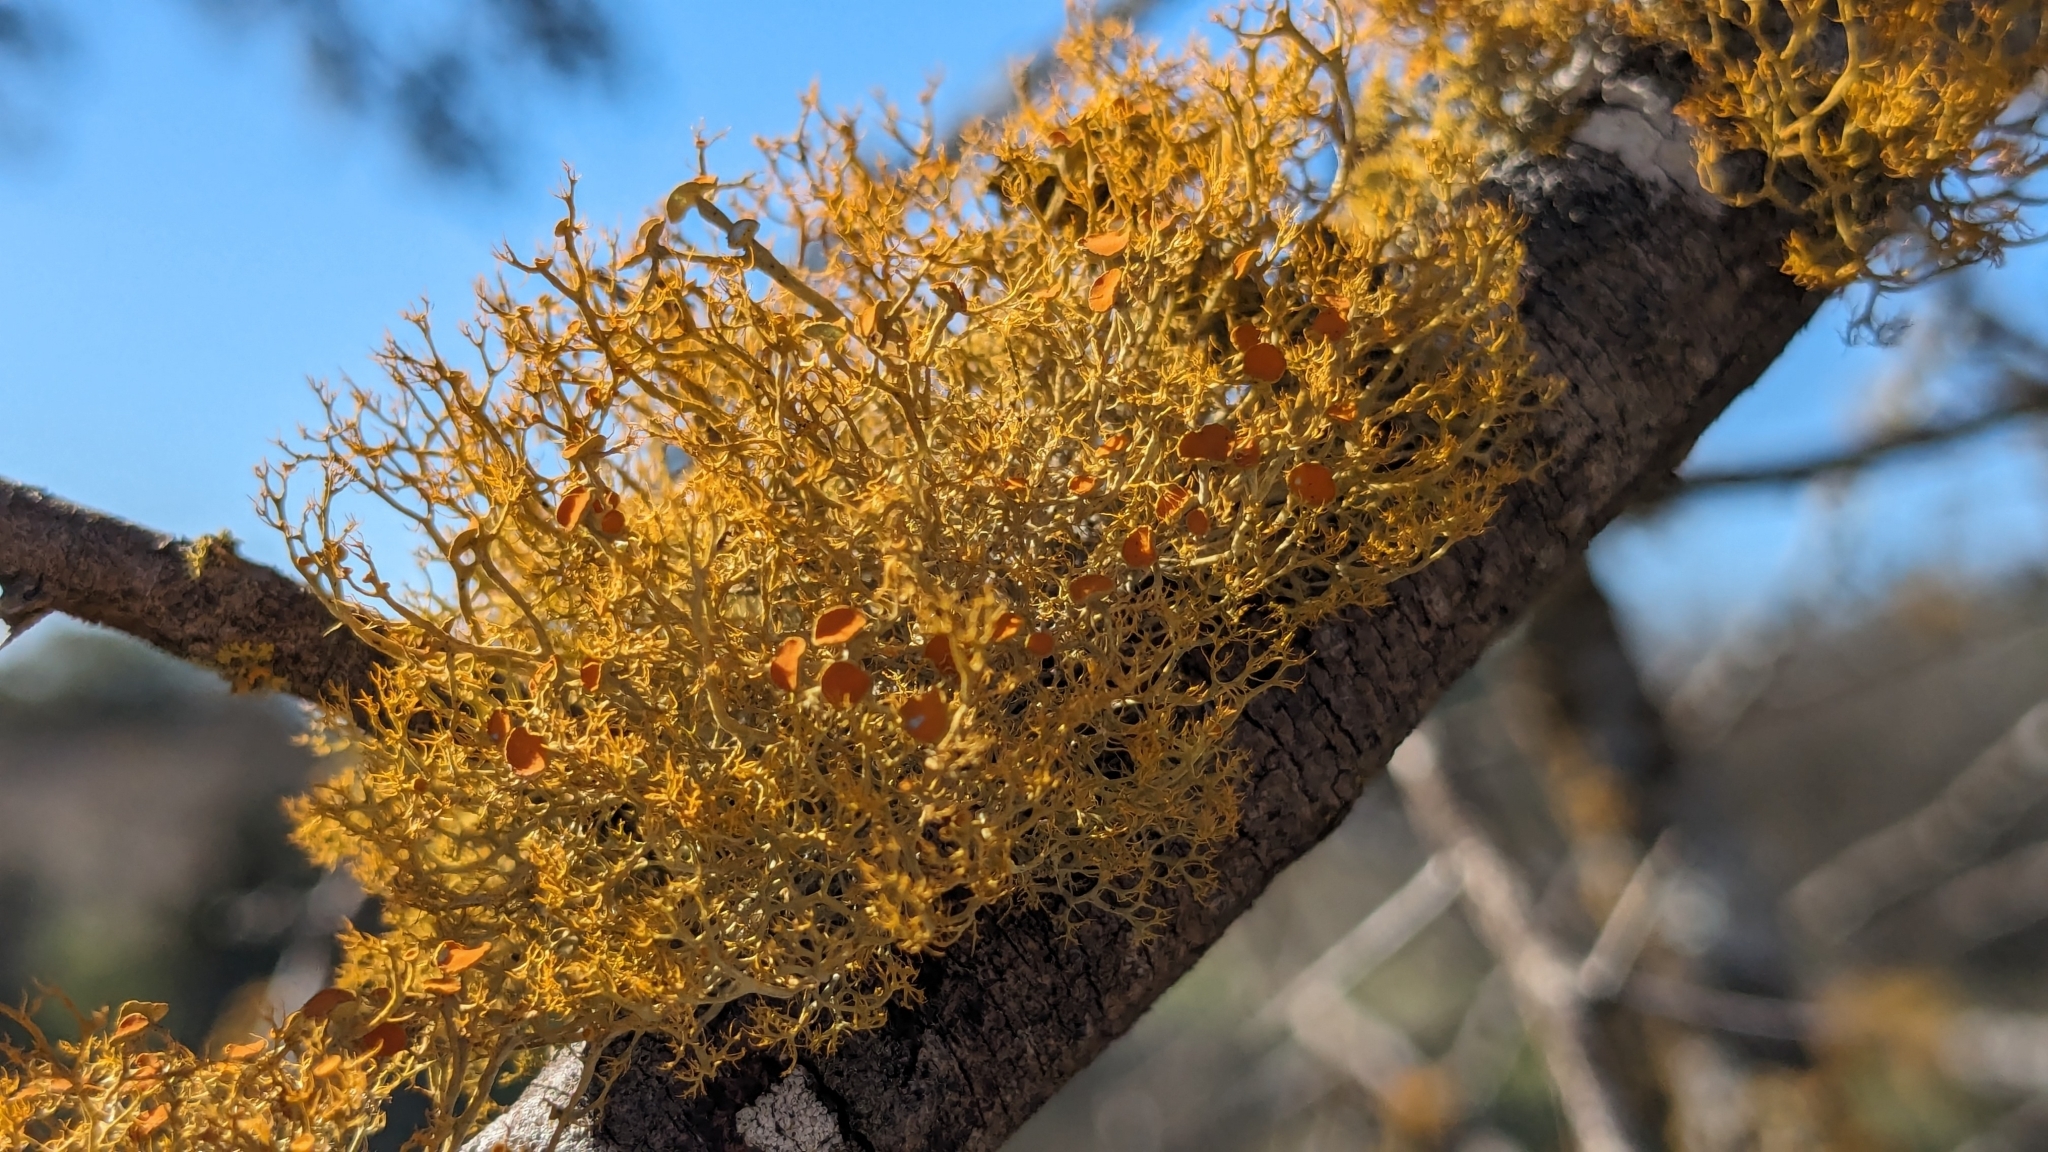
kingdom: Fungi
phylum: Ascomycota
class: Lecanoromycetes
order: Teloschistales
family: Teloschistaceae
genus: Teloschistes
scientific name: Teloschistes exilis
